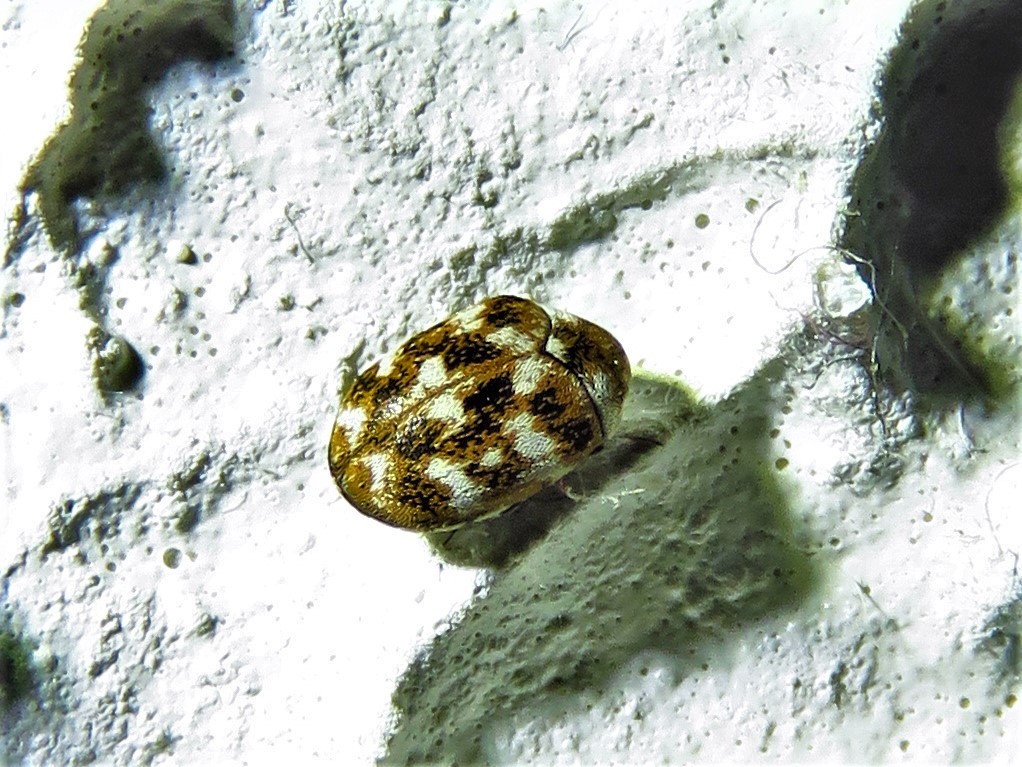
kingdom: Animalia
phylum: Arthropoda
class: Insecta
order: Coleoptera
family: Dermestidae
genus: Anthrenus
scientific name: Anthrenus verbasci
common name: Varied carpet beetle
